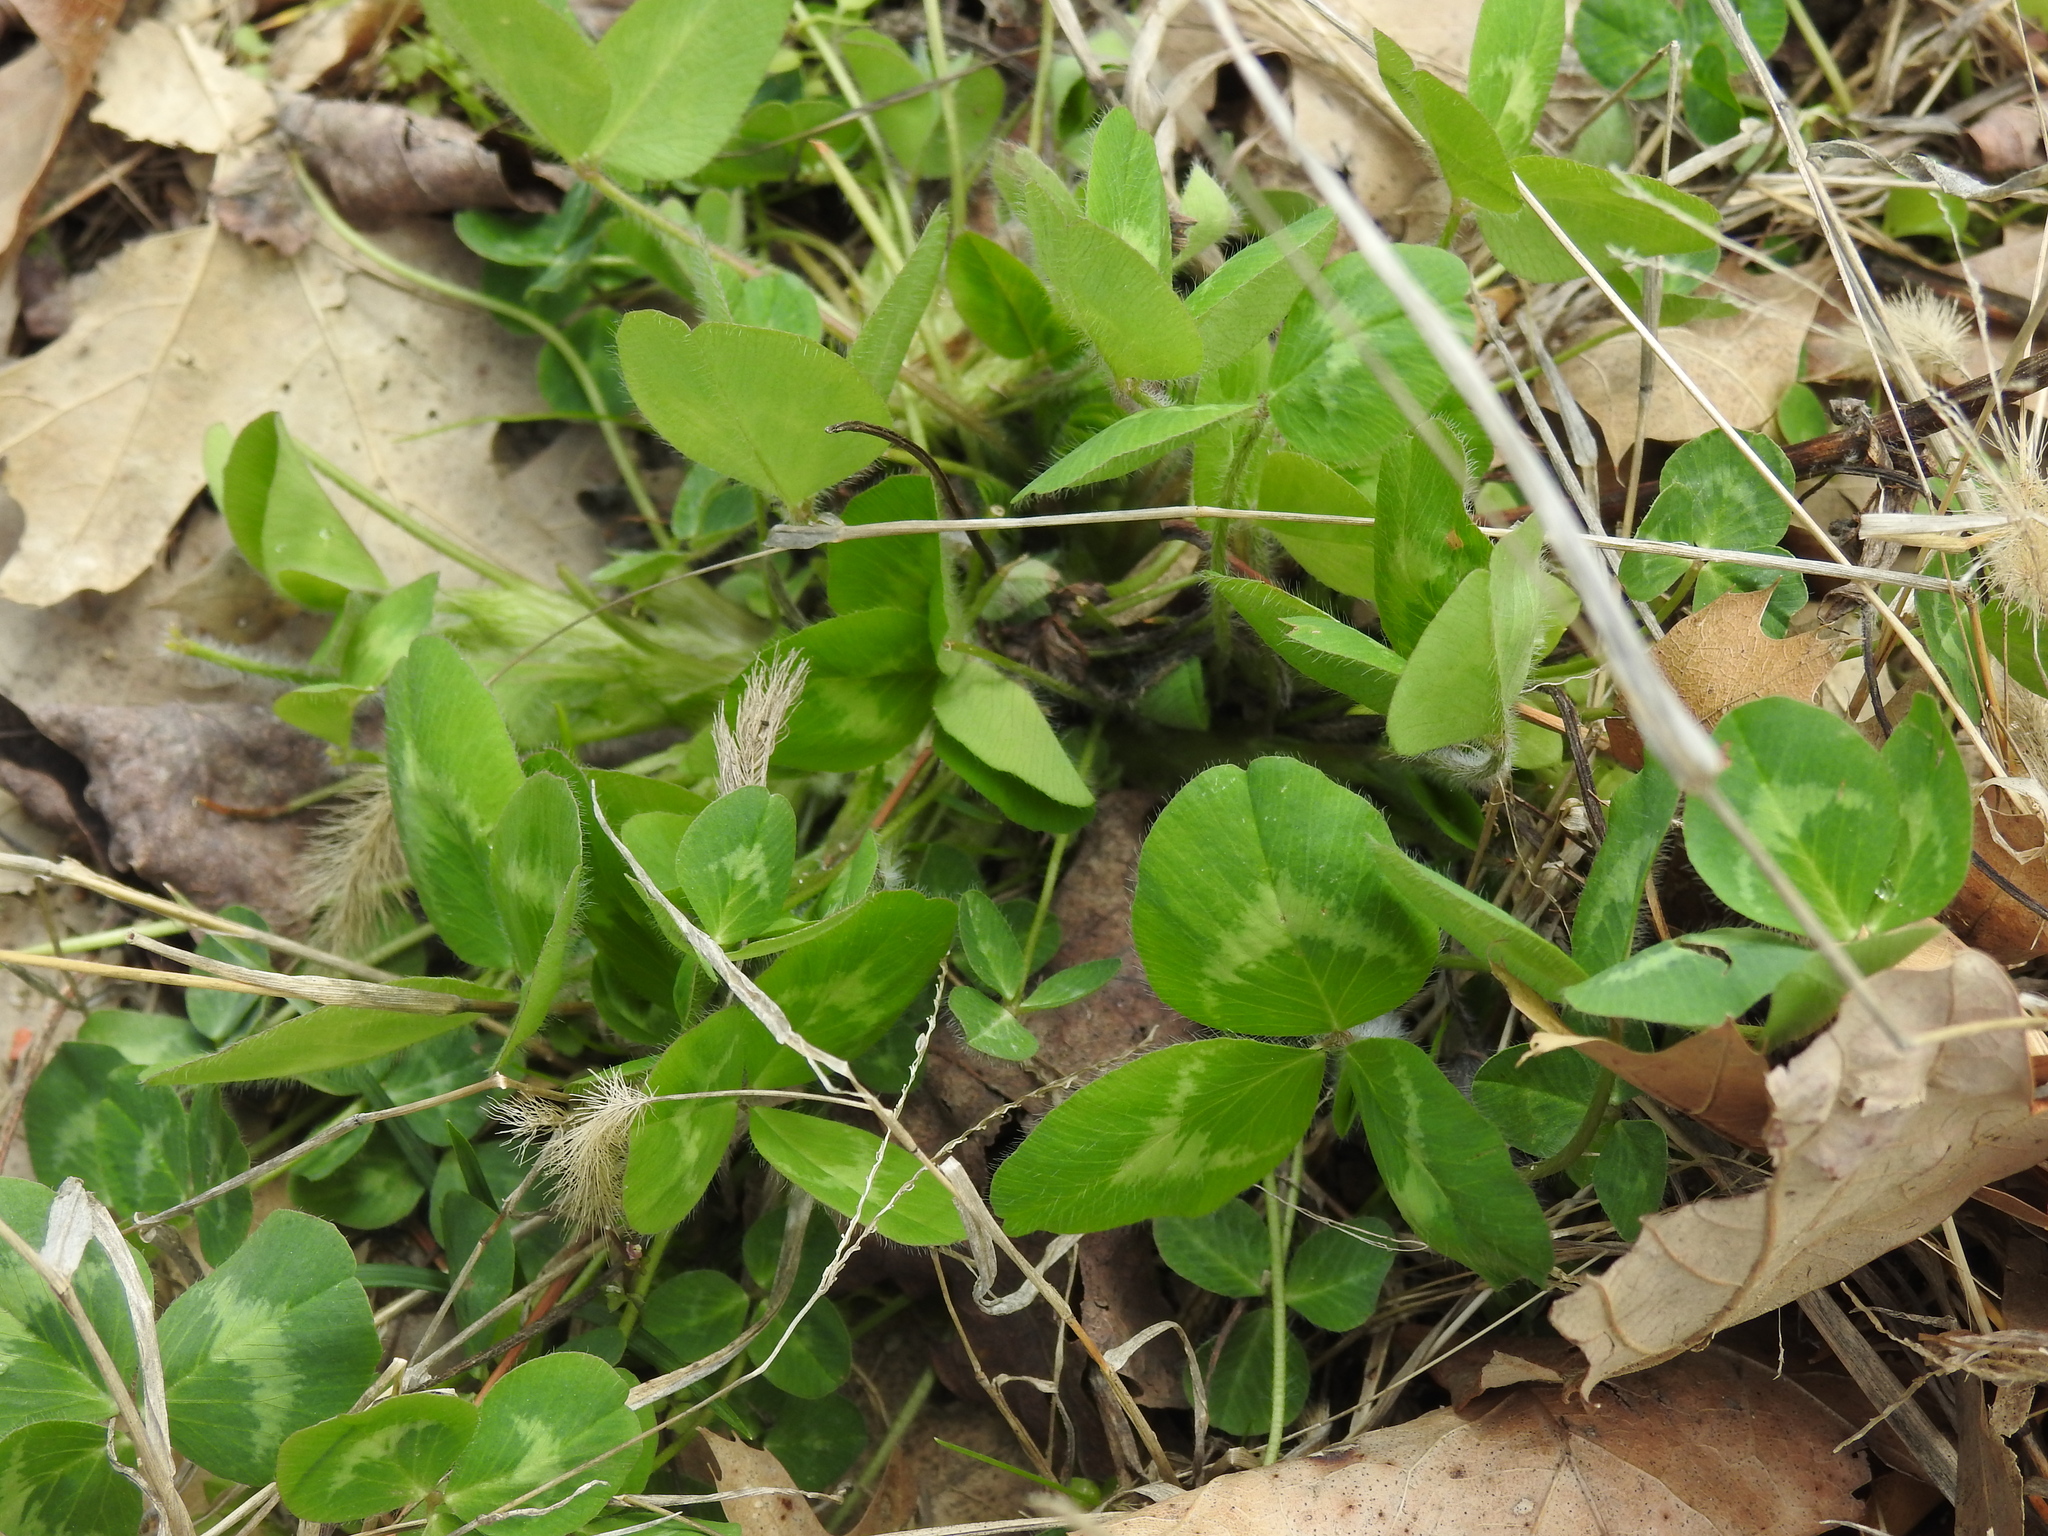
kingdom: Plantae
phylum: Tracheophyta
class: Magnoliopsida
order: Fabales
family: Fabaceae
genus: Trifolium
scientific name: Trifolium pratense
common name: Red clover
